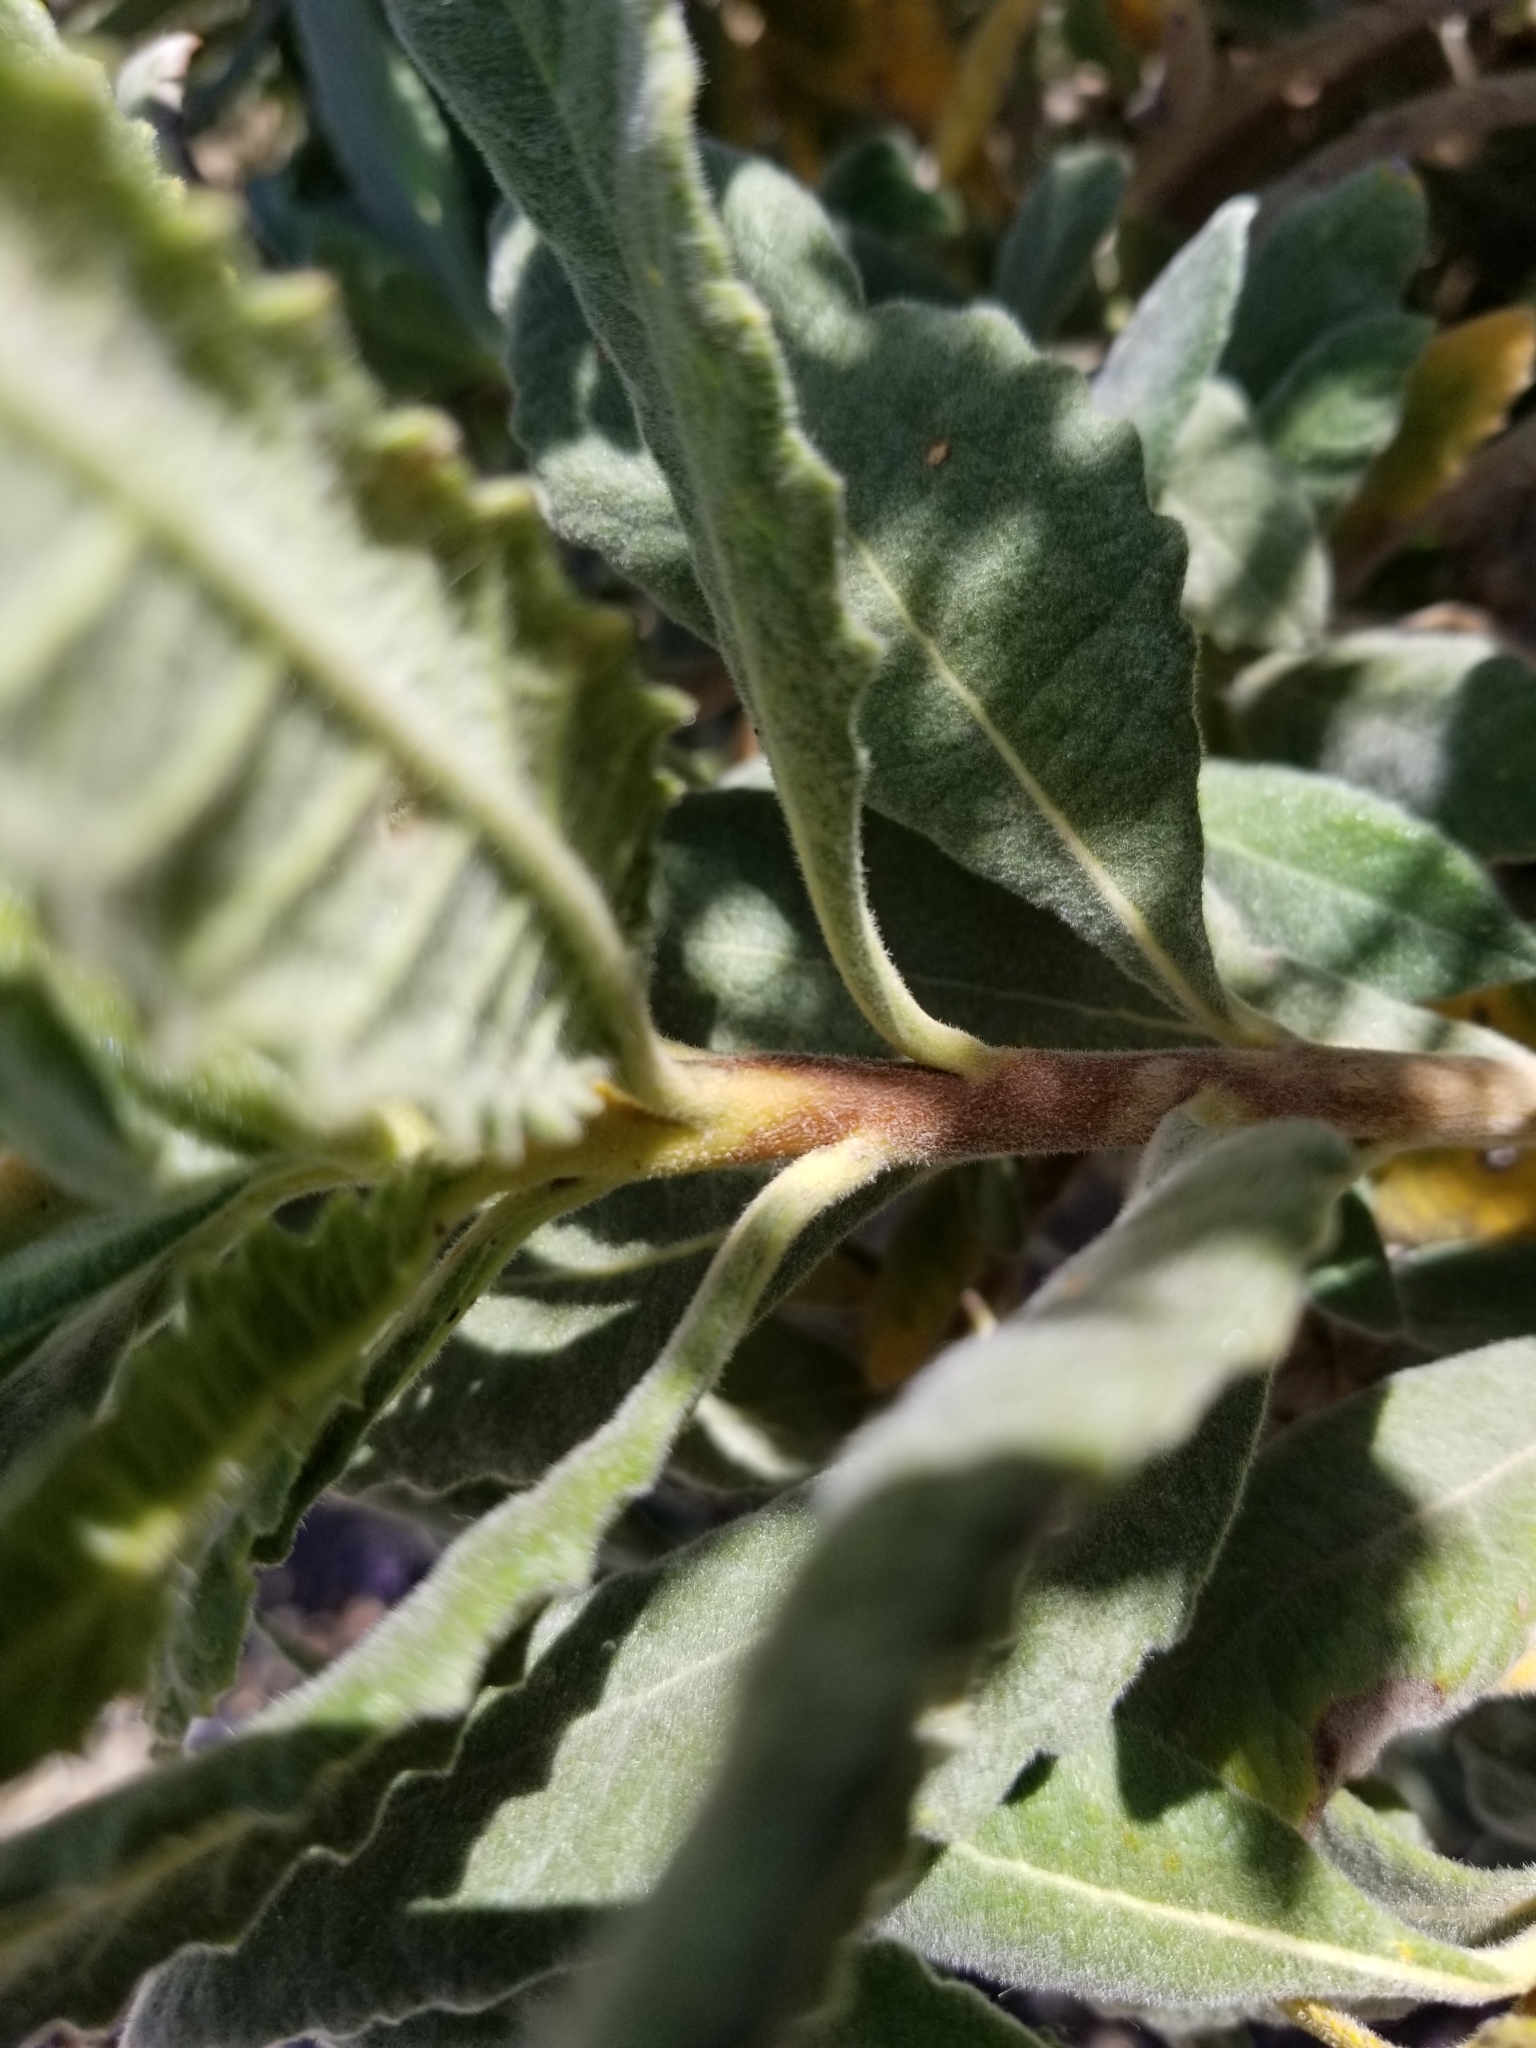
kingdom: Plantae
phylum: Tracheophyta
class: Magnoliopsida
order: Boraginales
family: Namaceae
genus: Eriodictyon
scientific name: Eriodictyon trichocalyx
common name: Hairy yerba-santa
